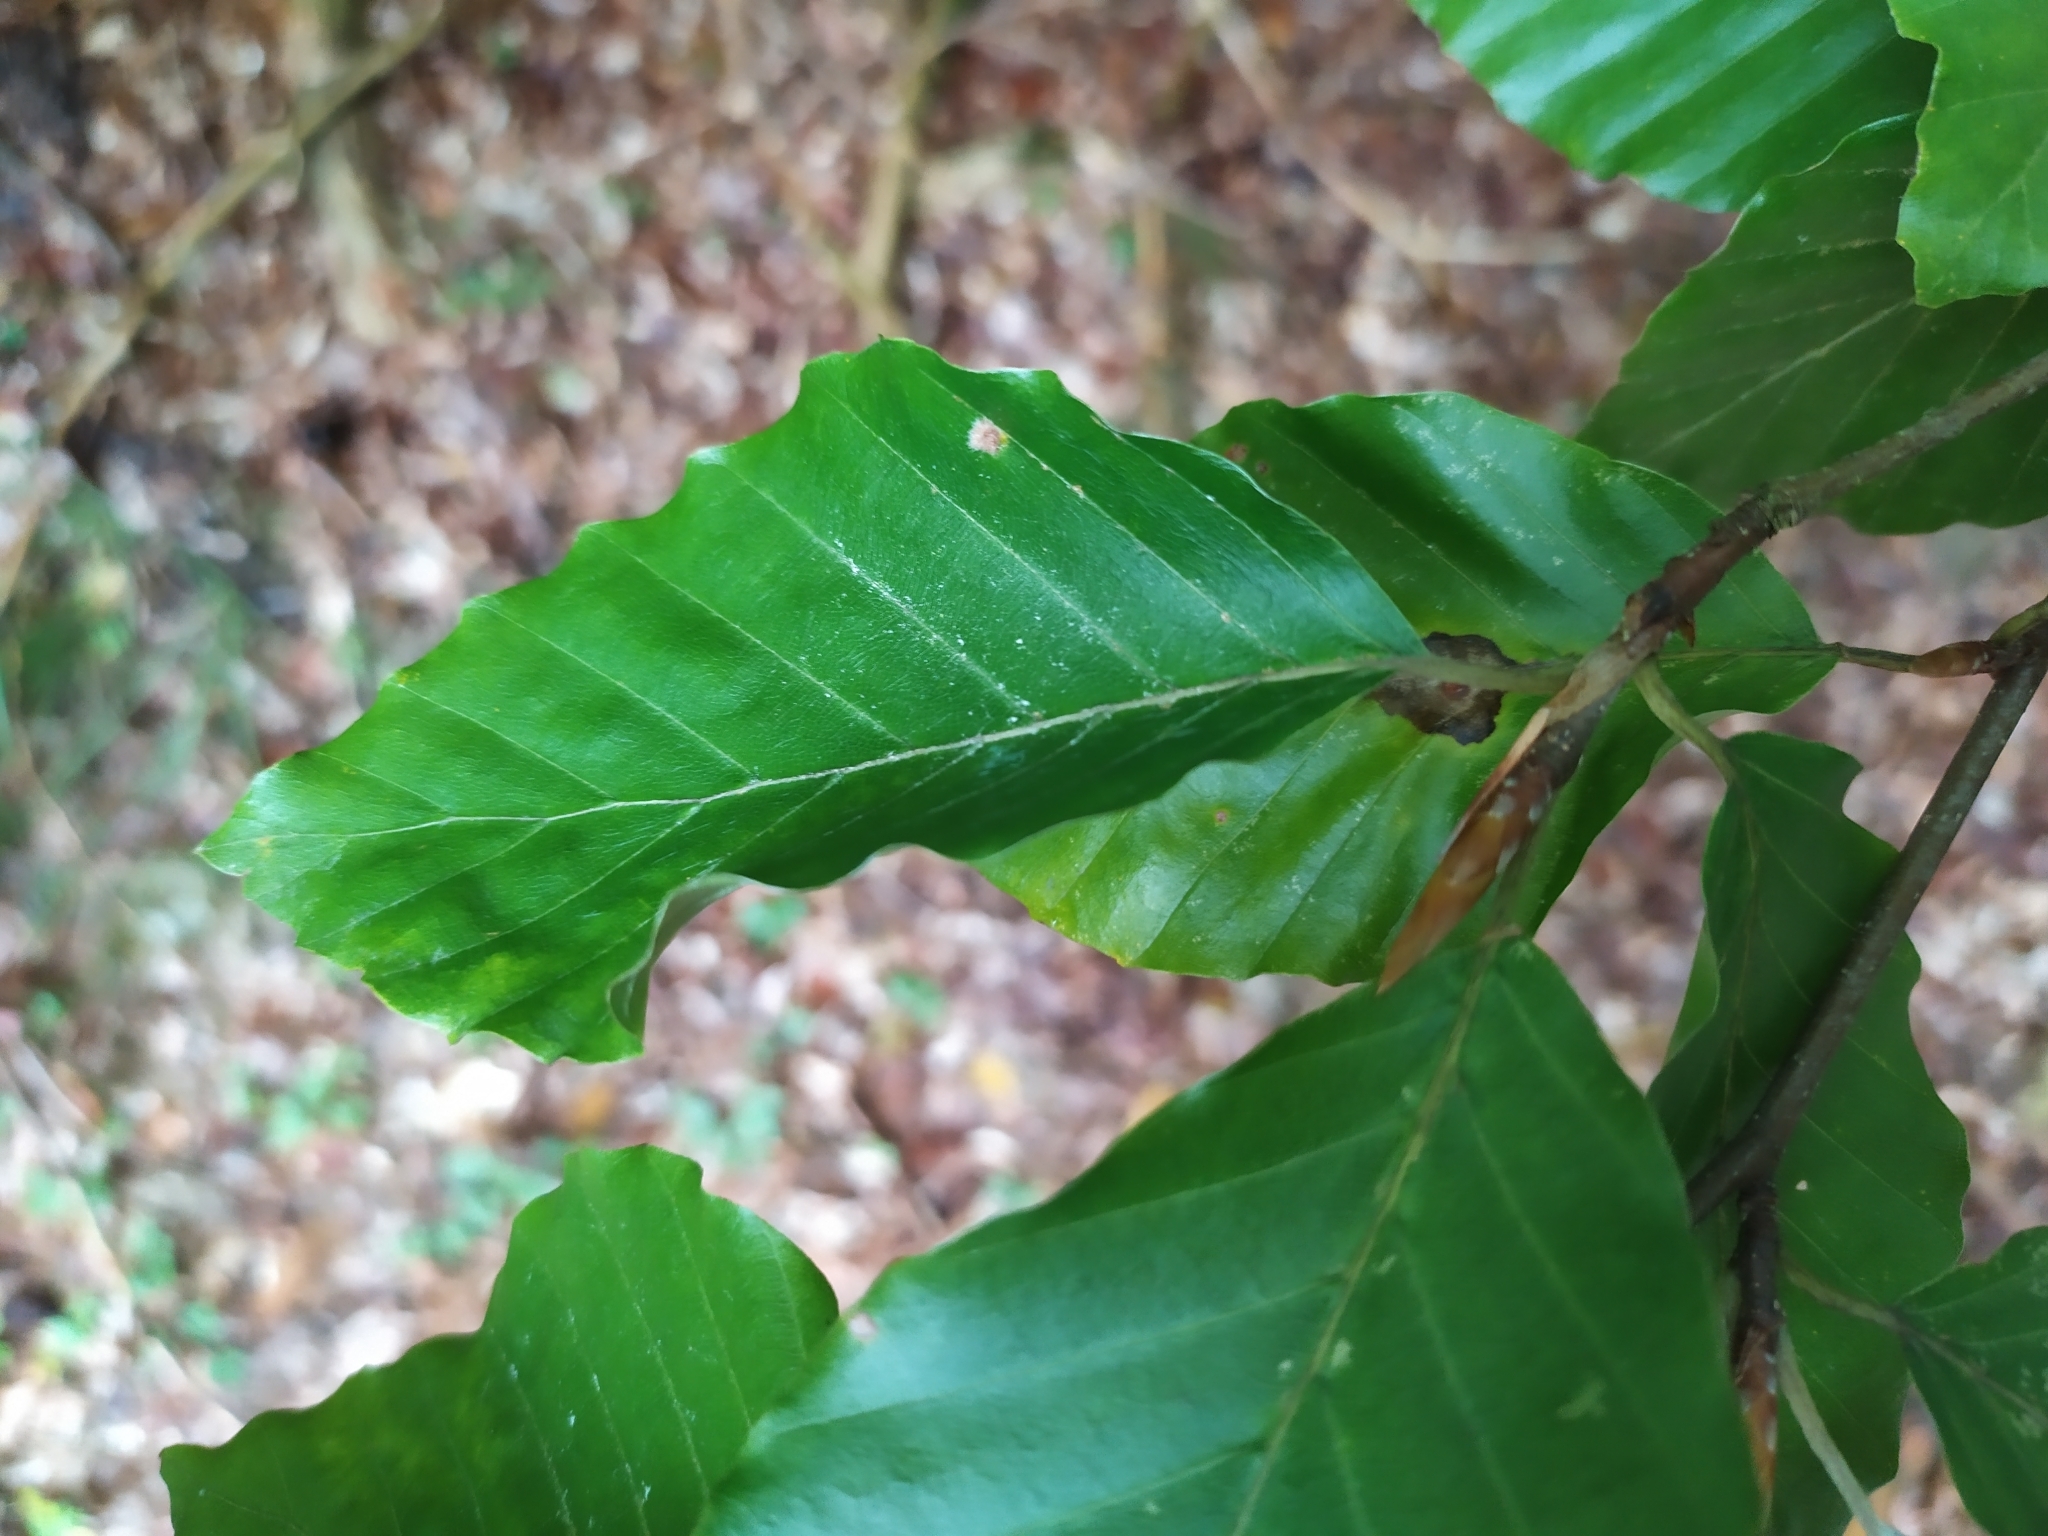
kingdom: Animalia
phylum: Arthropoda
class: Insecta
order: Diptera
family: Cecidomyiidae
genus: Hartigiola
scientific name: Hartigiola annulipes
